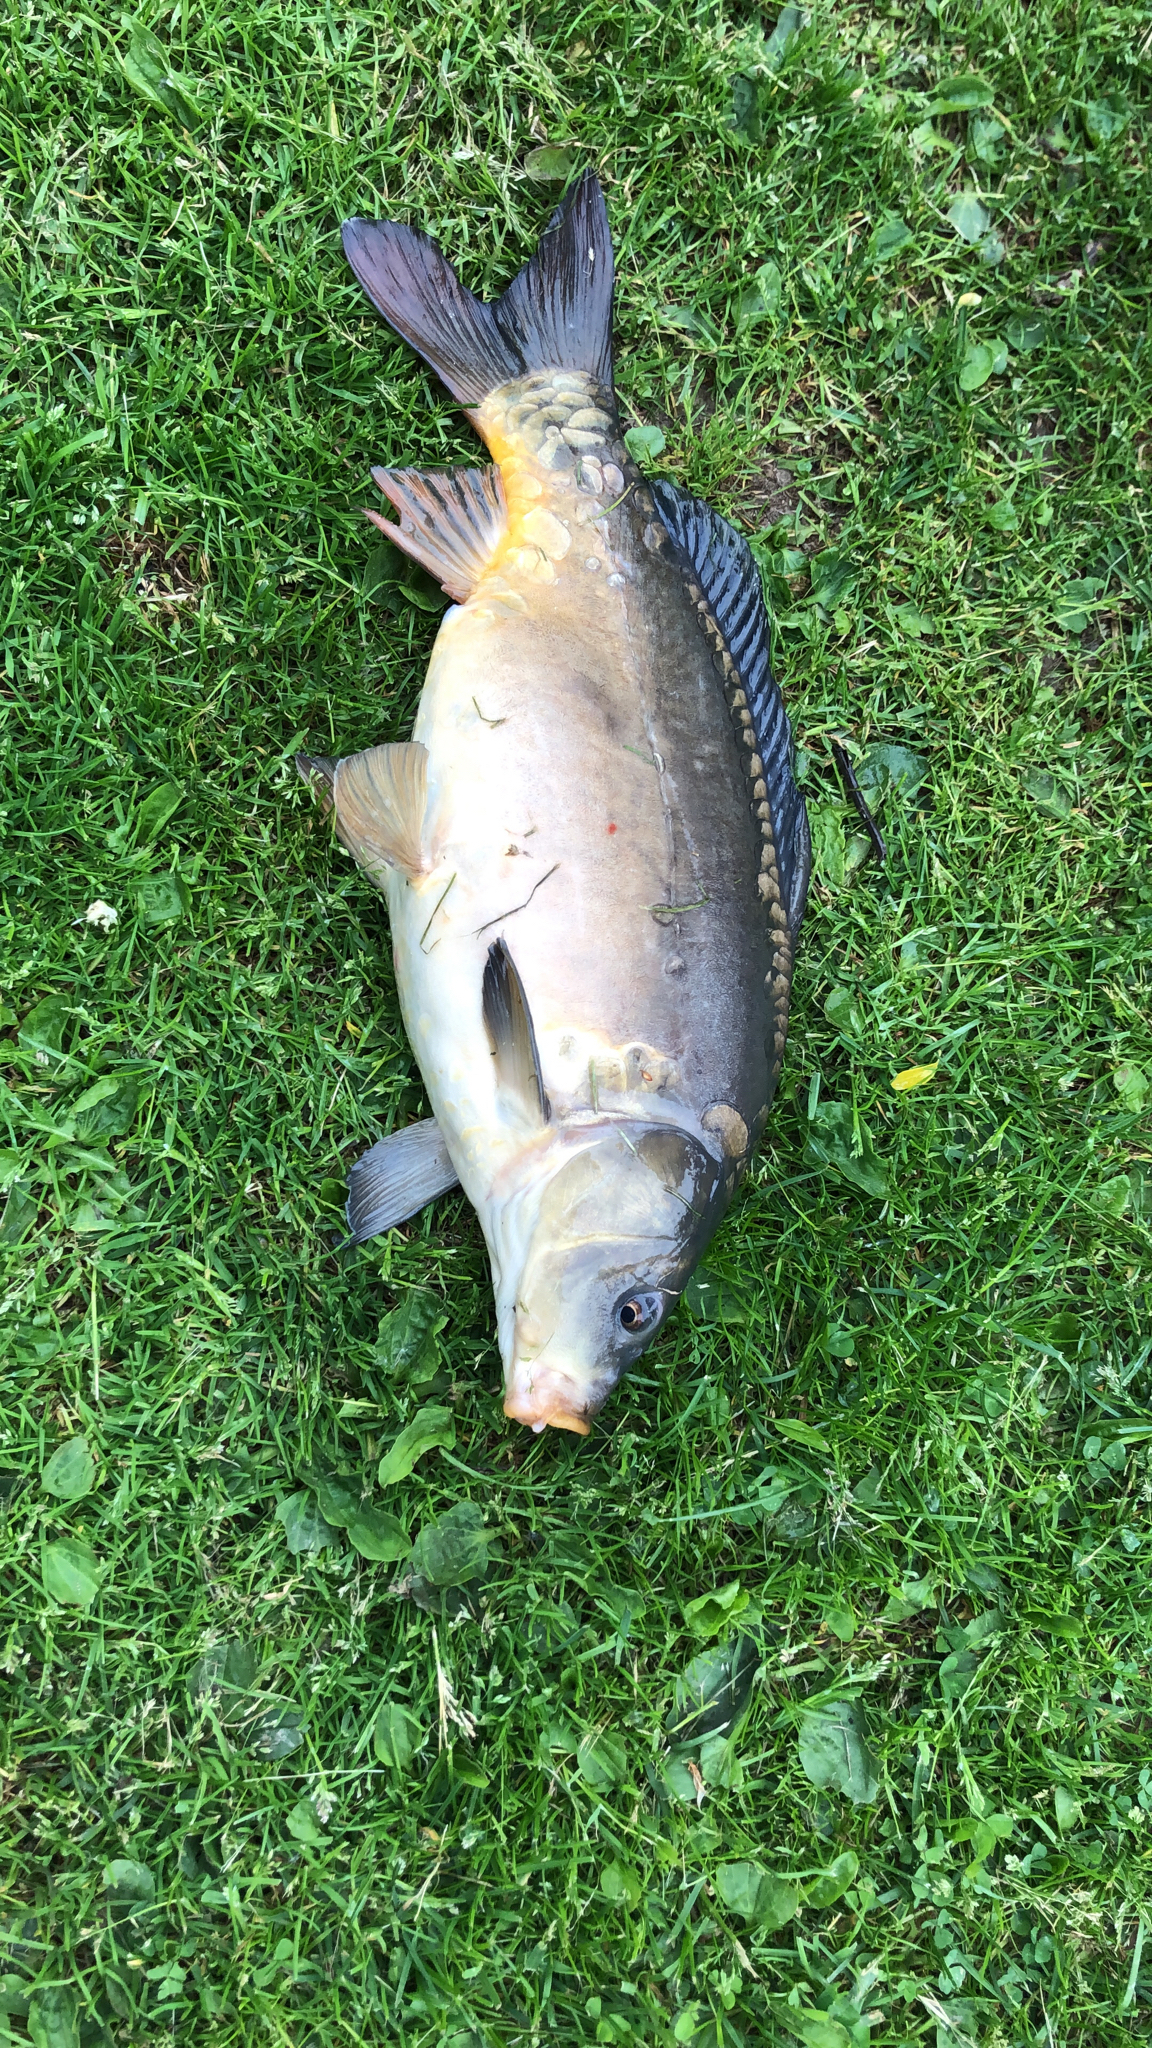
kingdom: Animalia
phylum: Chordata
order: Cypriniformes
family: Cyprinidae
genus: Cyprinus
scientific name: Cyprinus carpio
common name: Common carp
